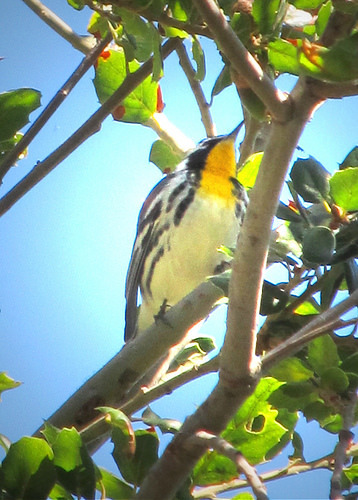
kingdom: Animalia
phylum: Chordata
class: Aves
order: Passeriformes
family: Parulidae
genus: Setophaga
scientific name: Setophaga dominica
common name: Yellow-throated warbler
